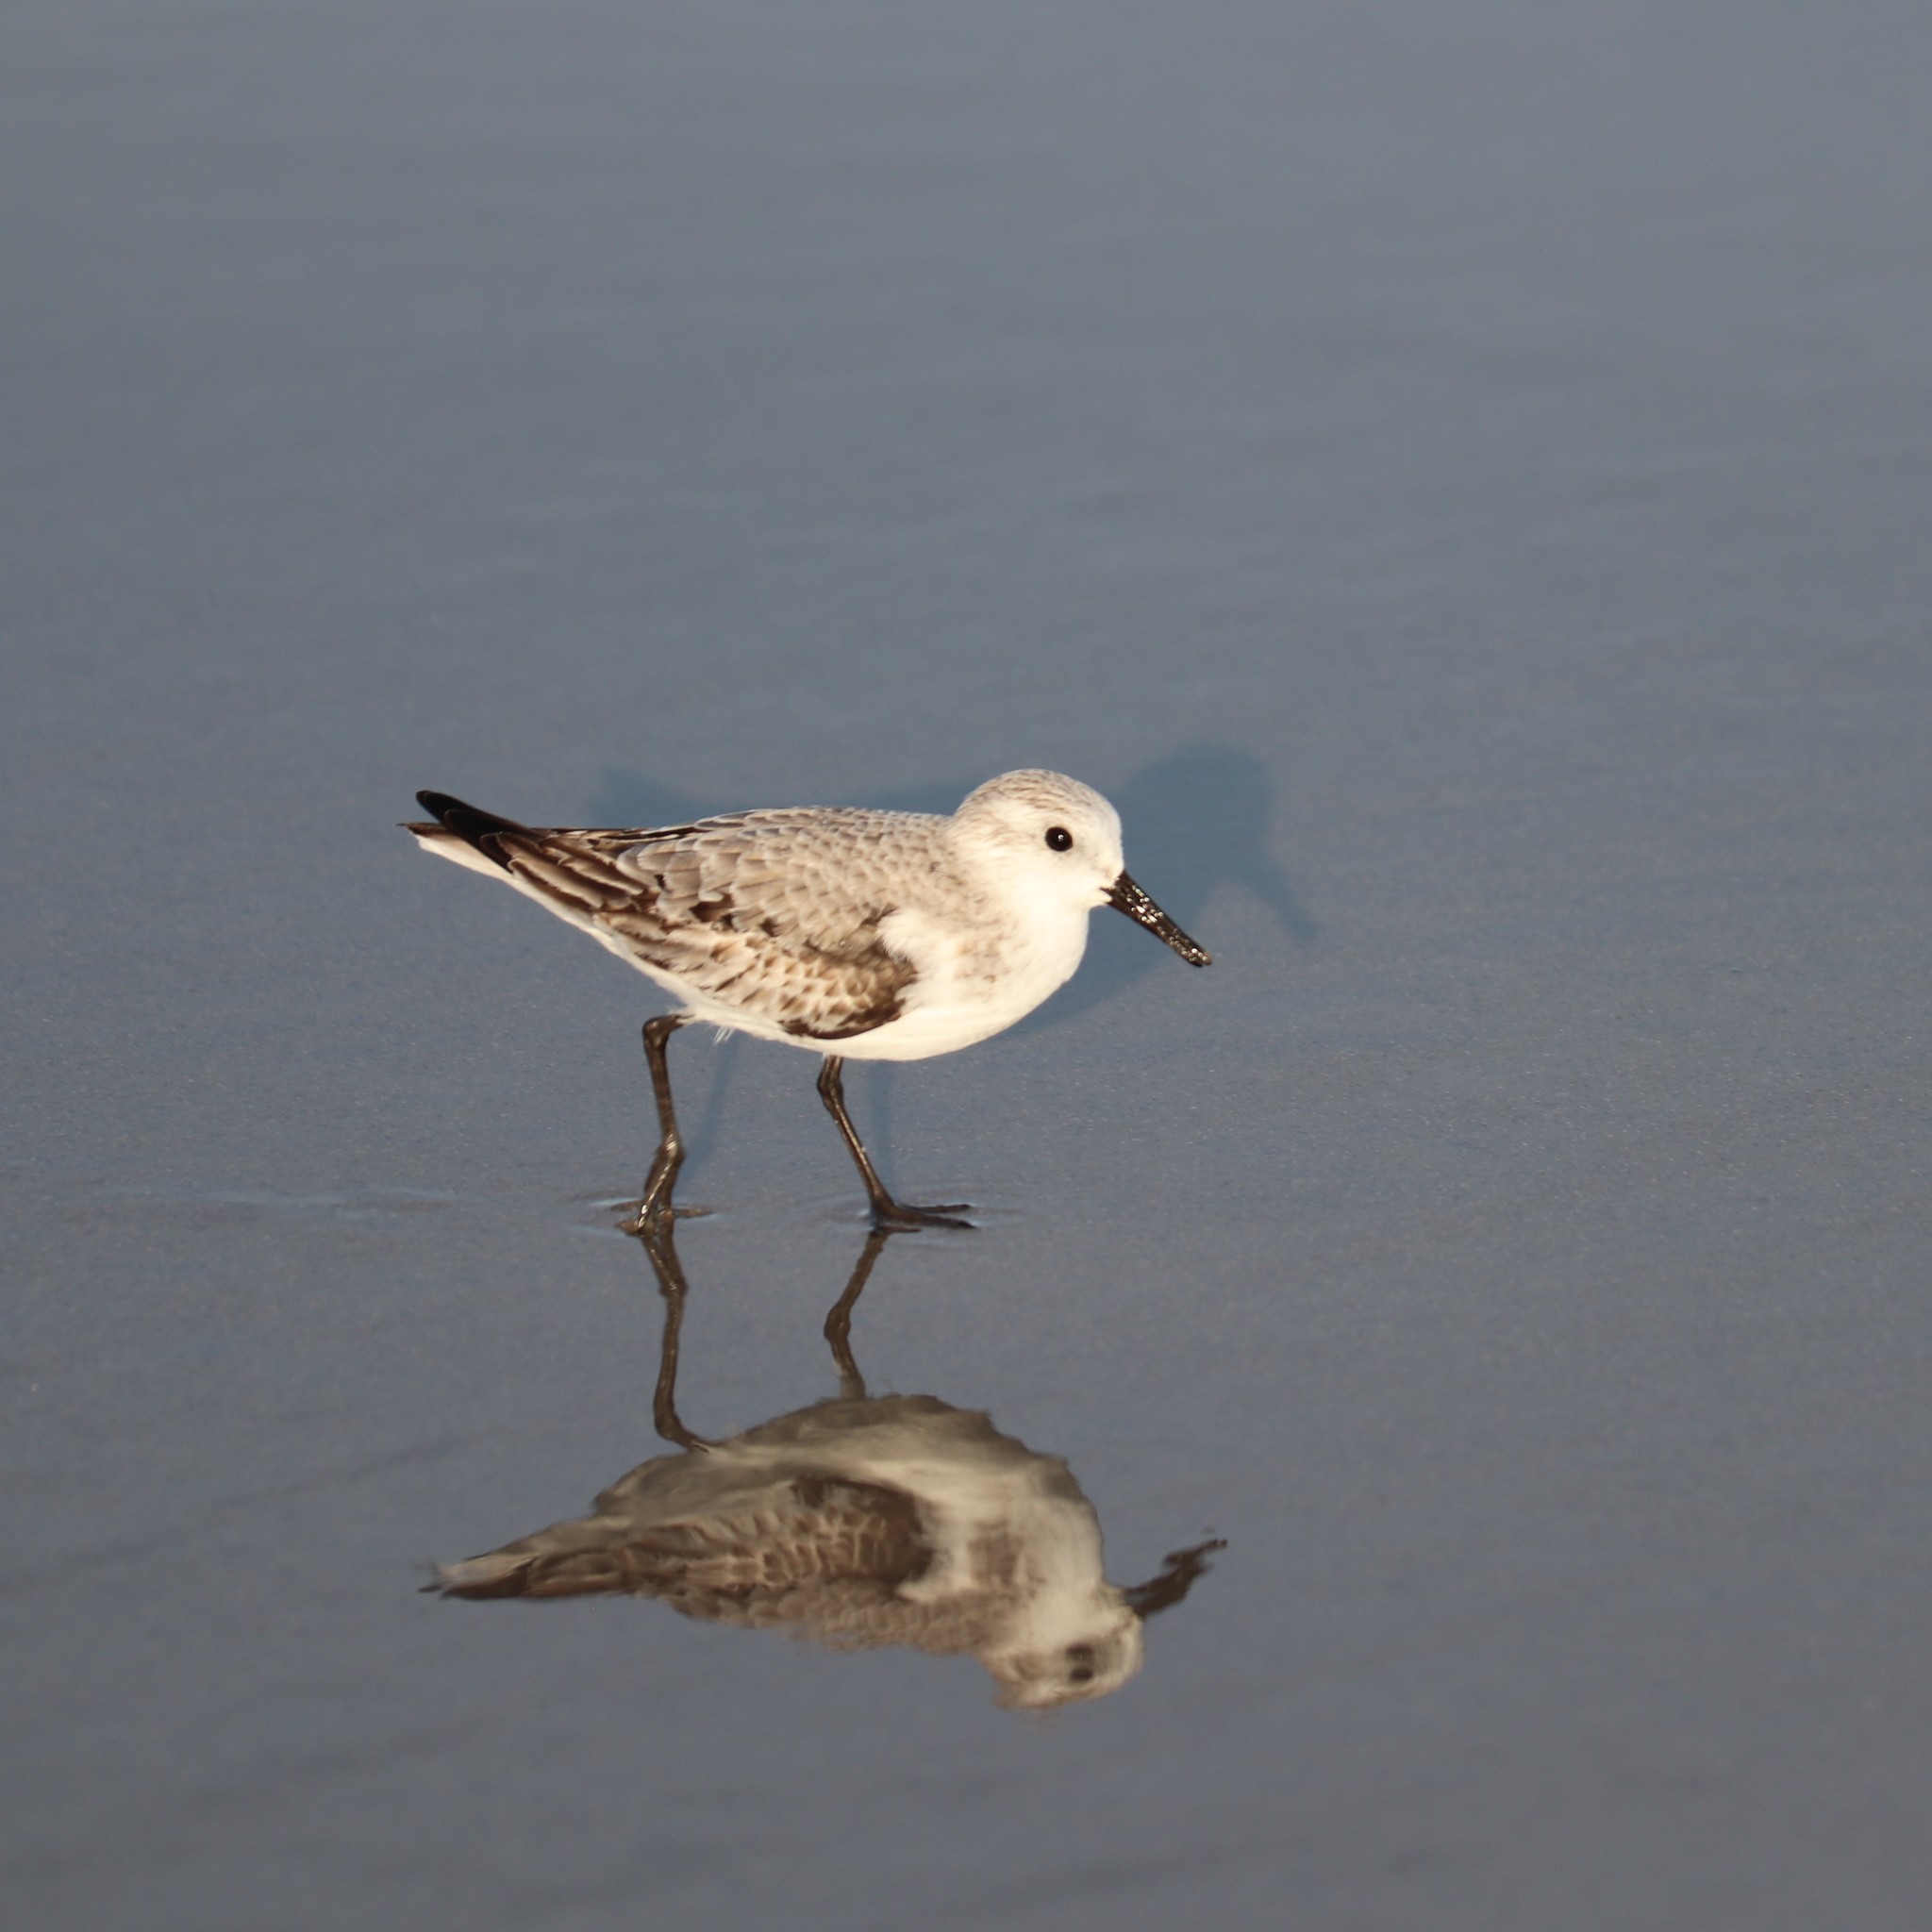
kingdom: Animalia
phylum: Chordata
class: Aves
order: Charadriiformes
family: Scolopacidae
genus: Calidris
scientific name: Calidris alba
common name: Sanderling
